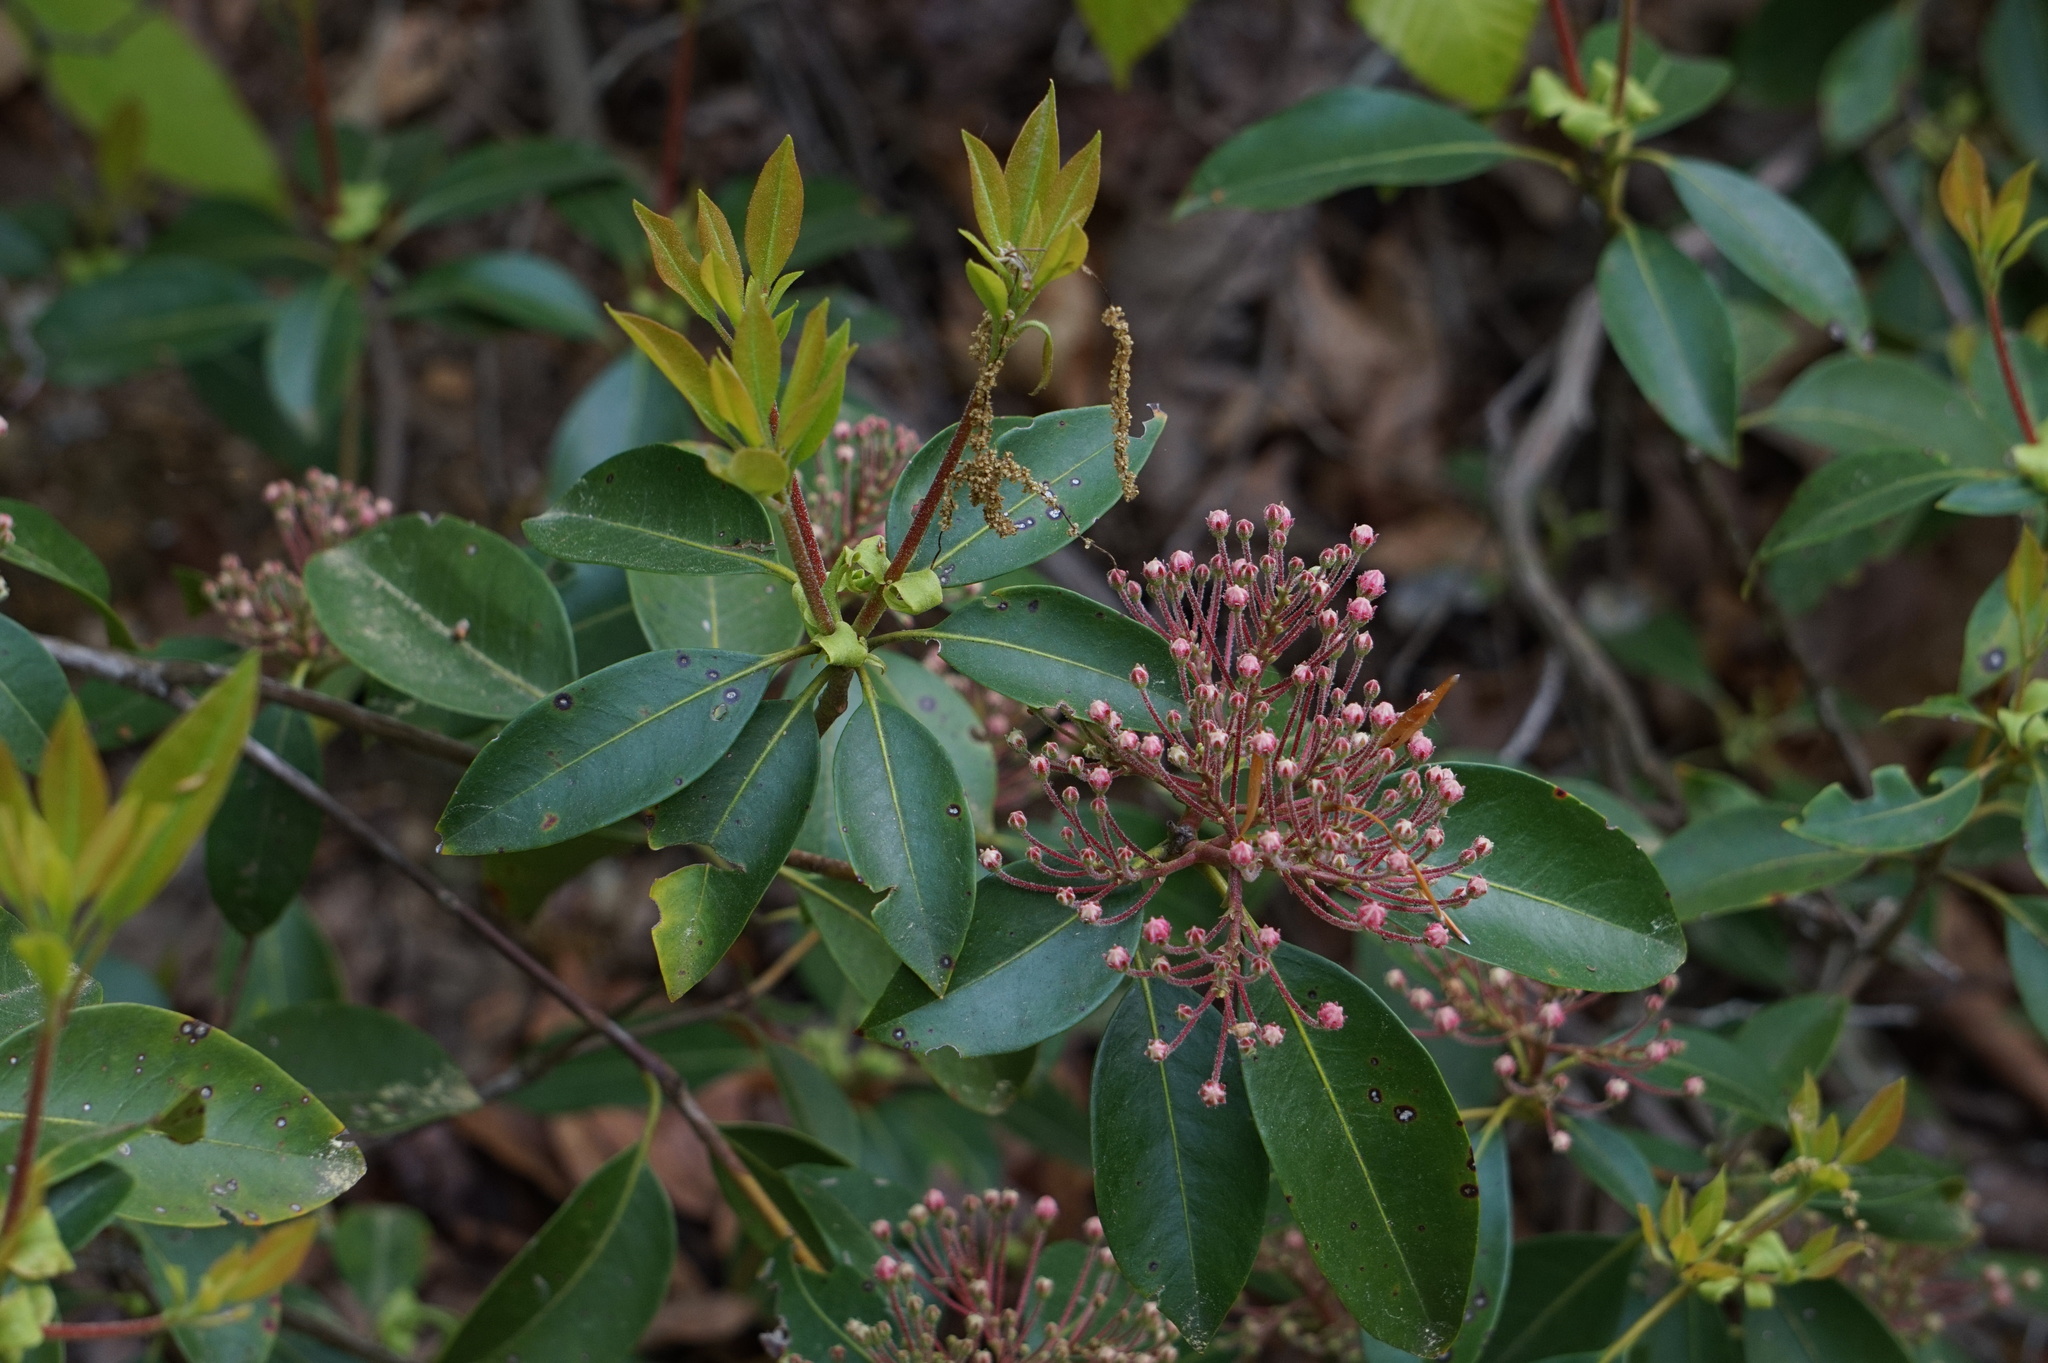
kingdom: Plantae
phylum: Tracheophyta
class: Magnoliopsida
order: Ericales
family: Ericaceae
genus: Kalmia
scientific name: Kalmia latifolia
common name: Mountain-laurel
